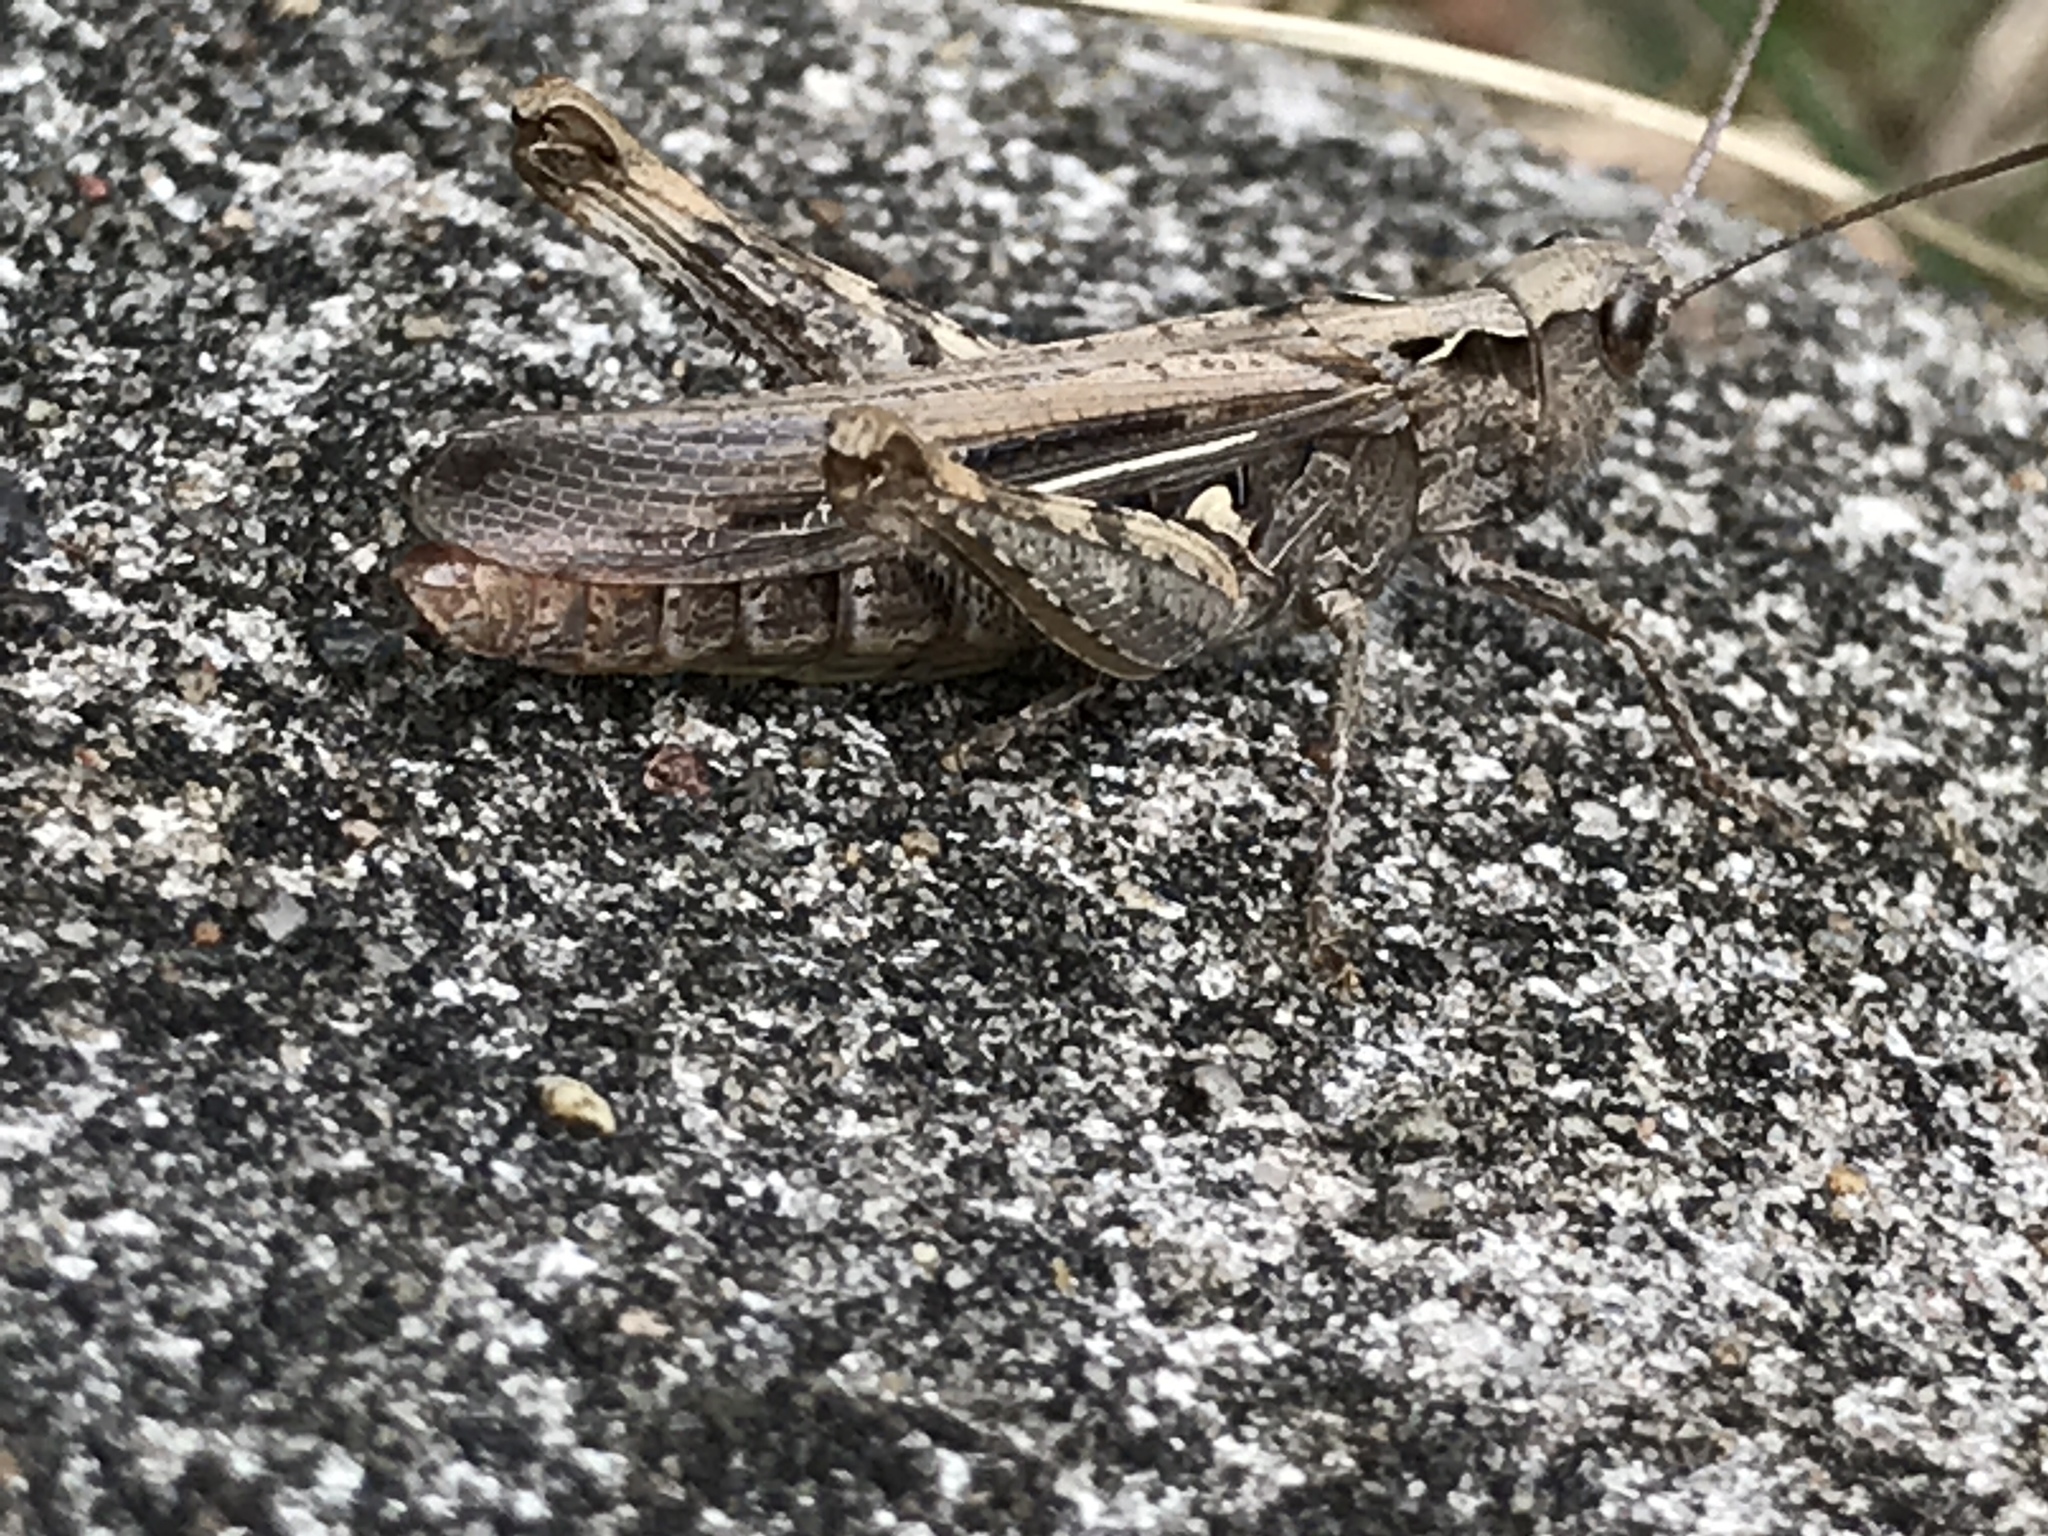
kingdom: Animalia
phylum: Arthropoda
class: Insecta
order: Orthoptera
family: Acrididae
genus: Chorthippus
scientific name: Chorthippus brunneus
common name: Field grasshopper
